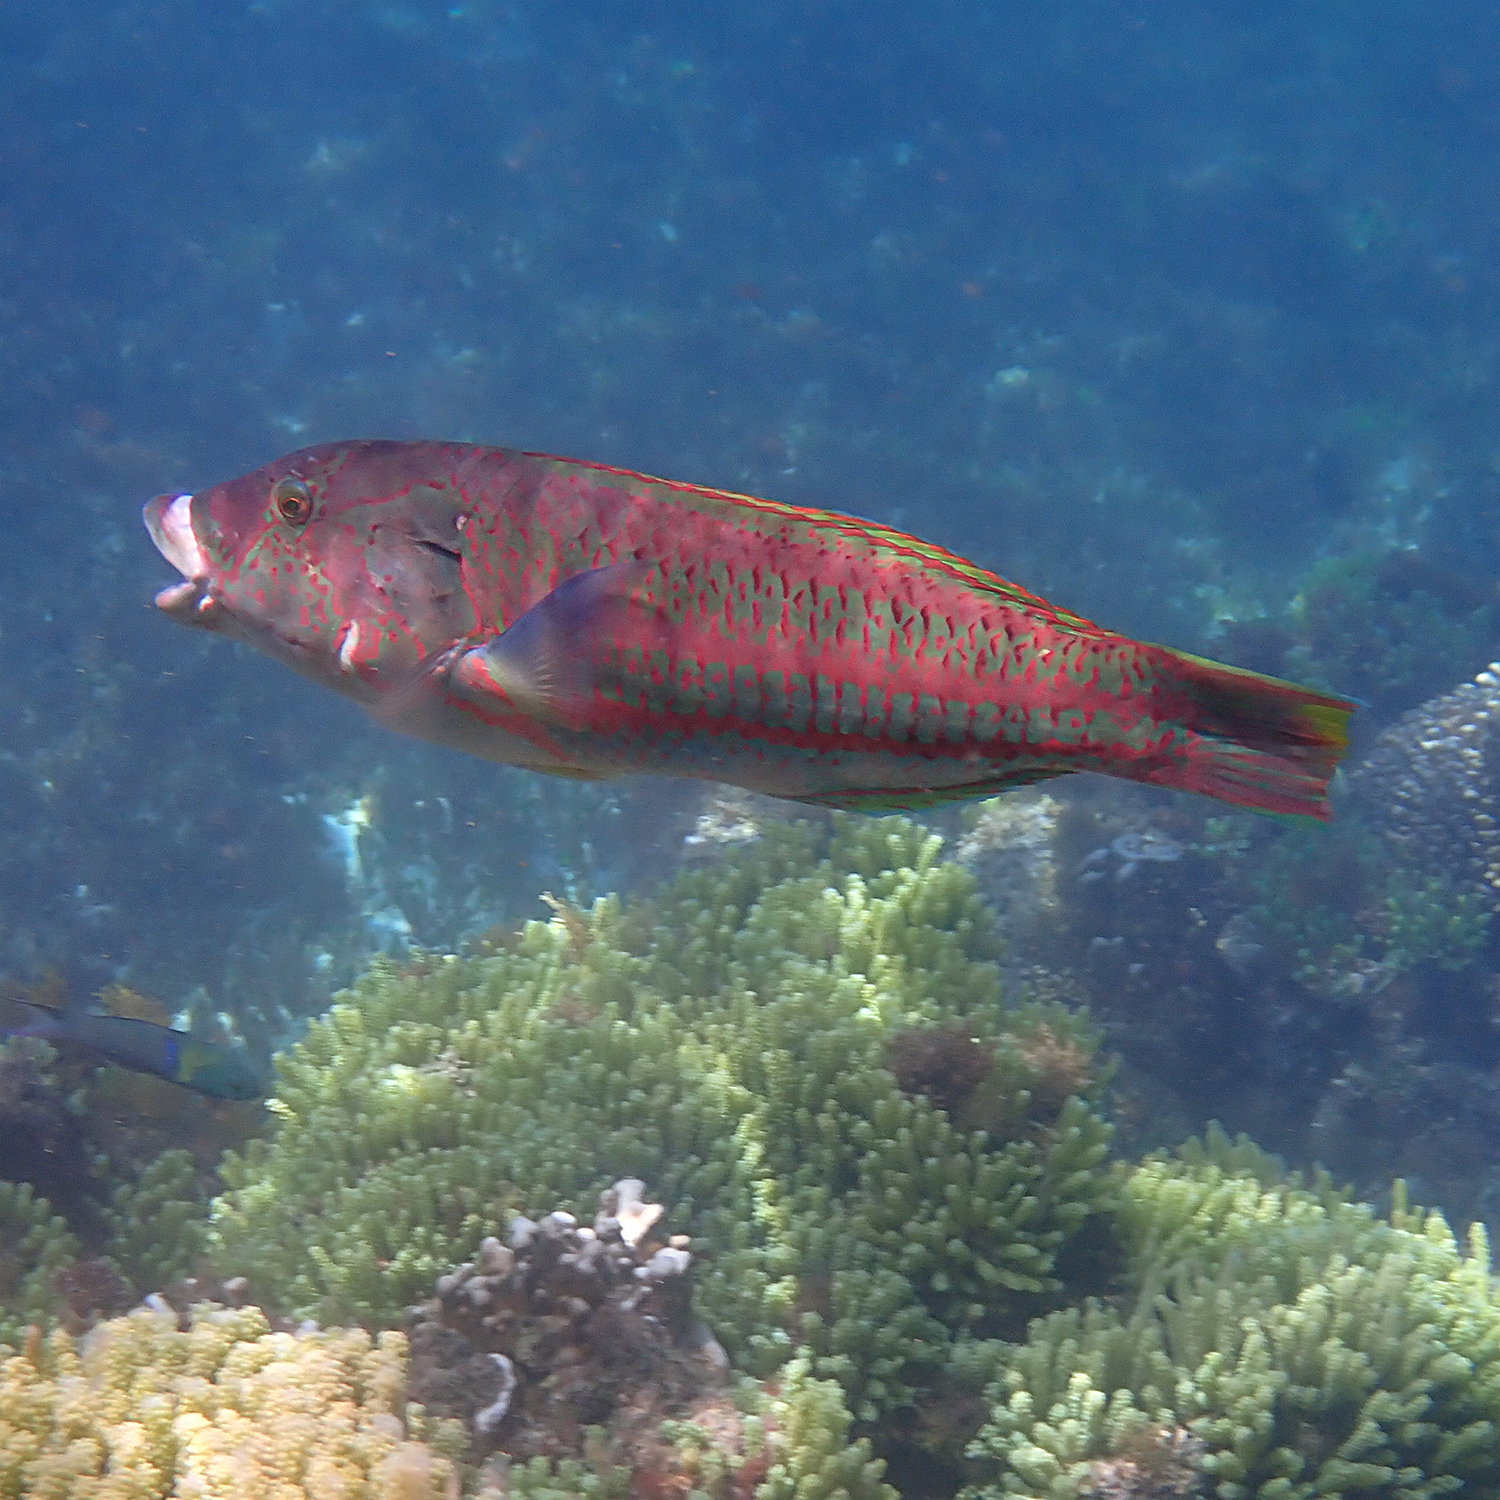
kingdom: Animalia
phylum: Chordata
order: Perciformes
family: Labridae
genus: Thalassoma
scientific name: Thalassoma purpureum
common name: Parrotfish
